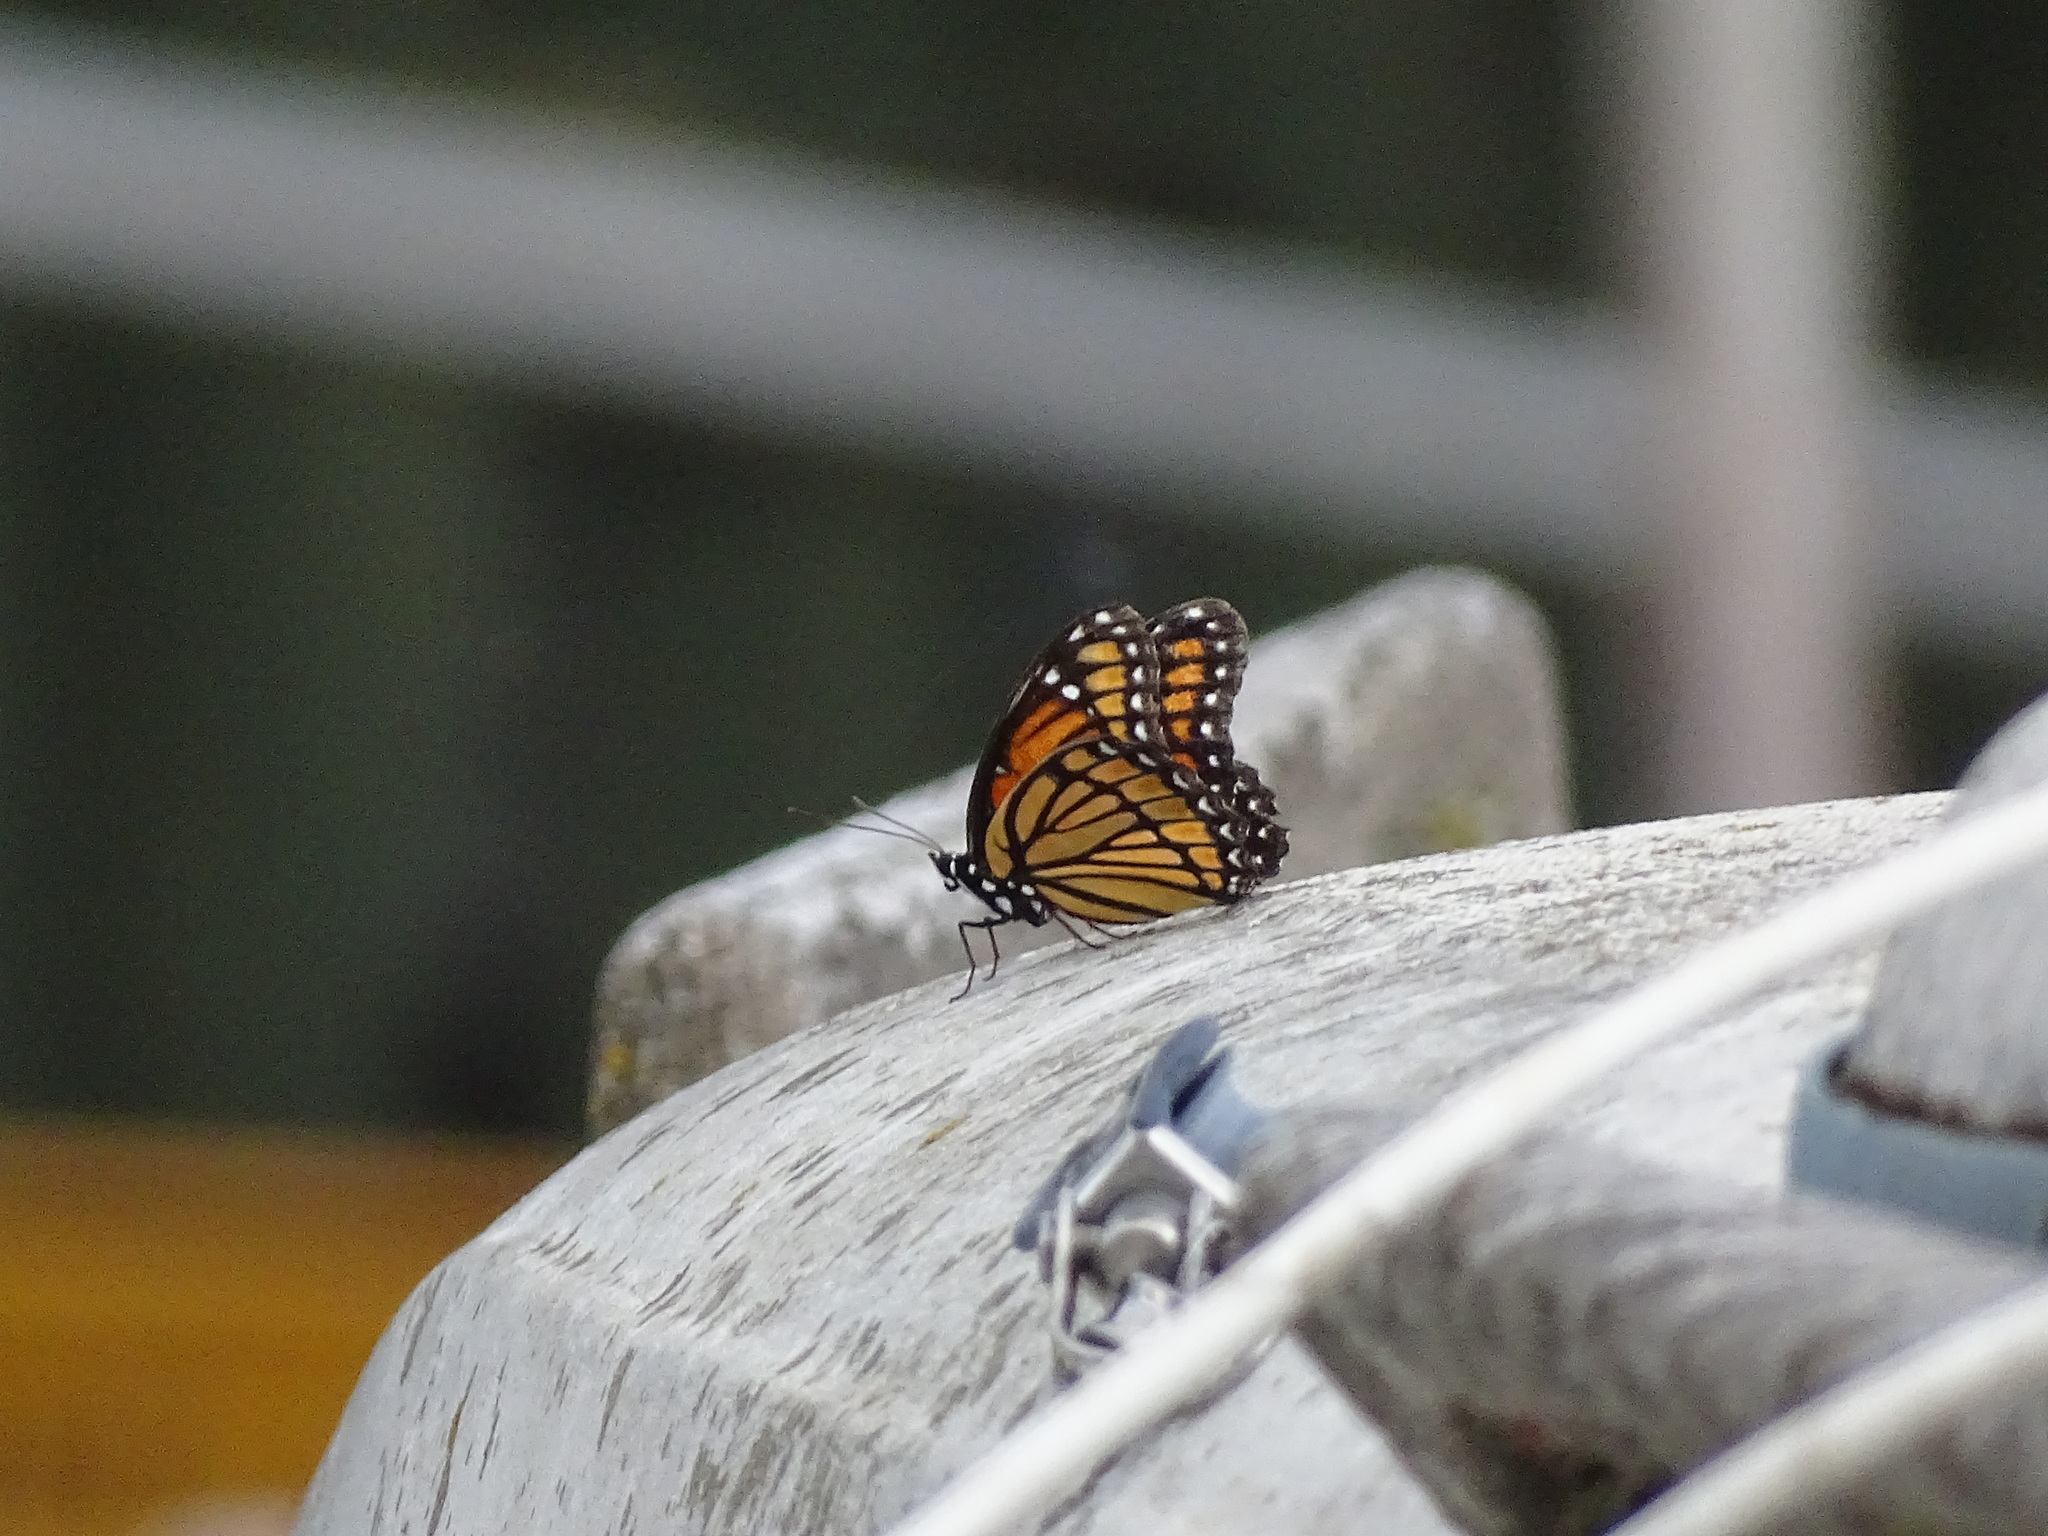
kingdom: Animalia
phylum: Arthropoda
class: Insecta
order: Lepidoptera
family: Nymphalidae
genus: Limenitis
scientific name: Limenitis archippus
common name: Viceroy
